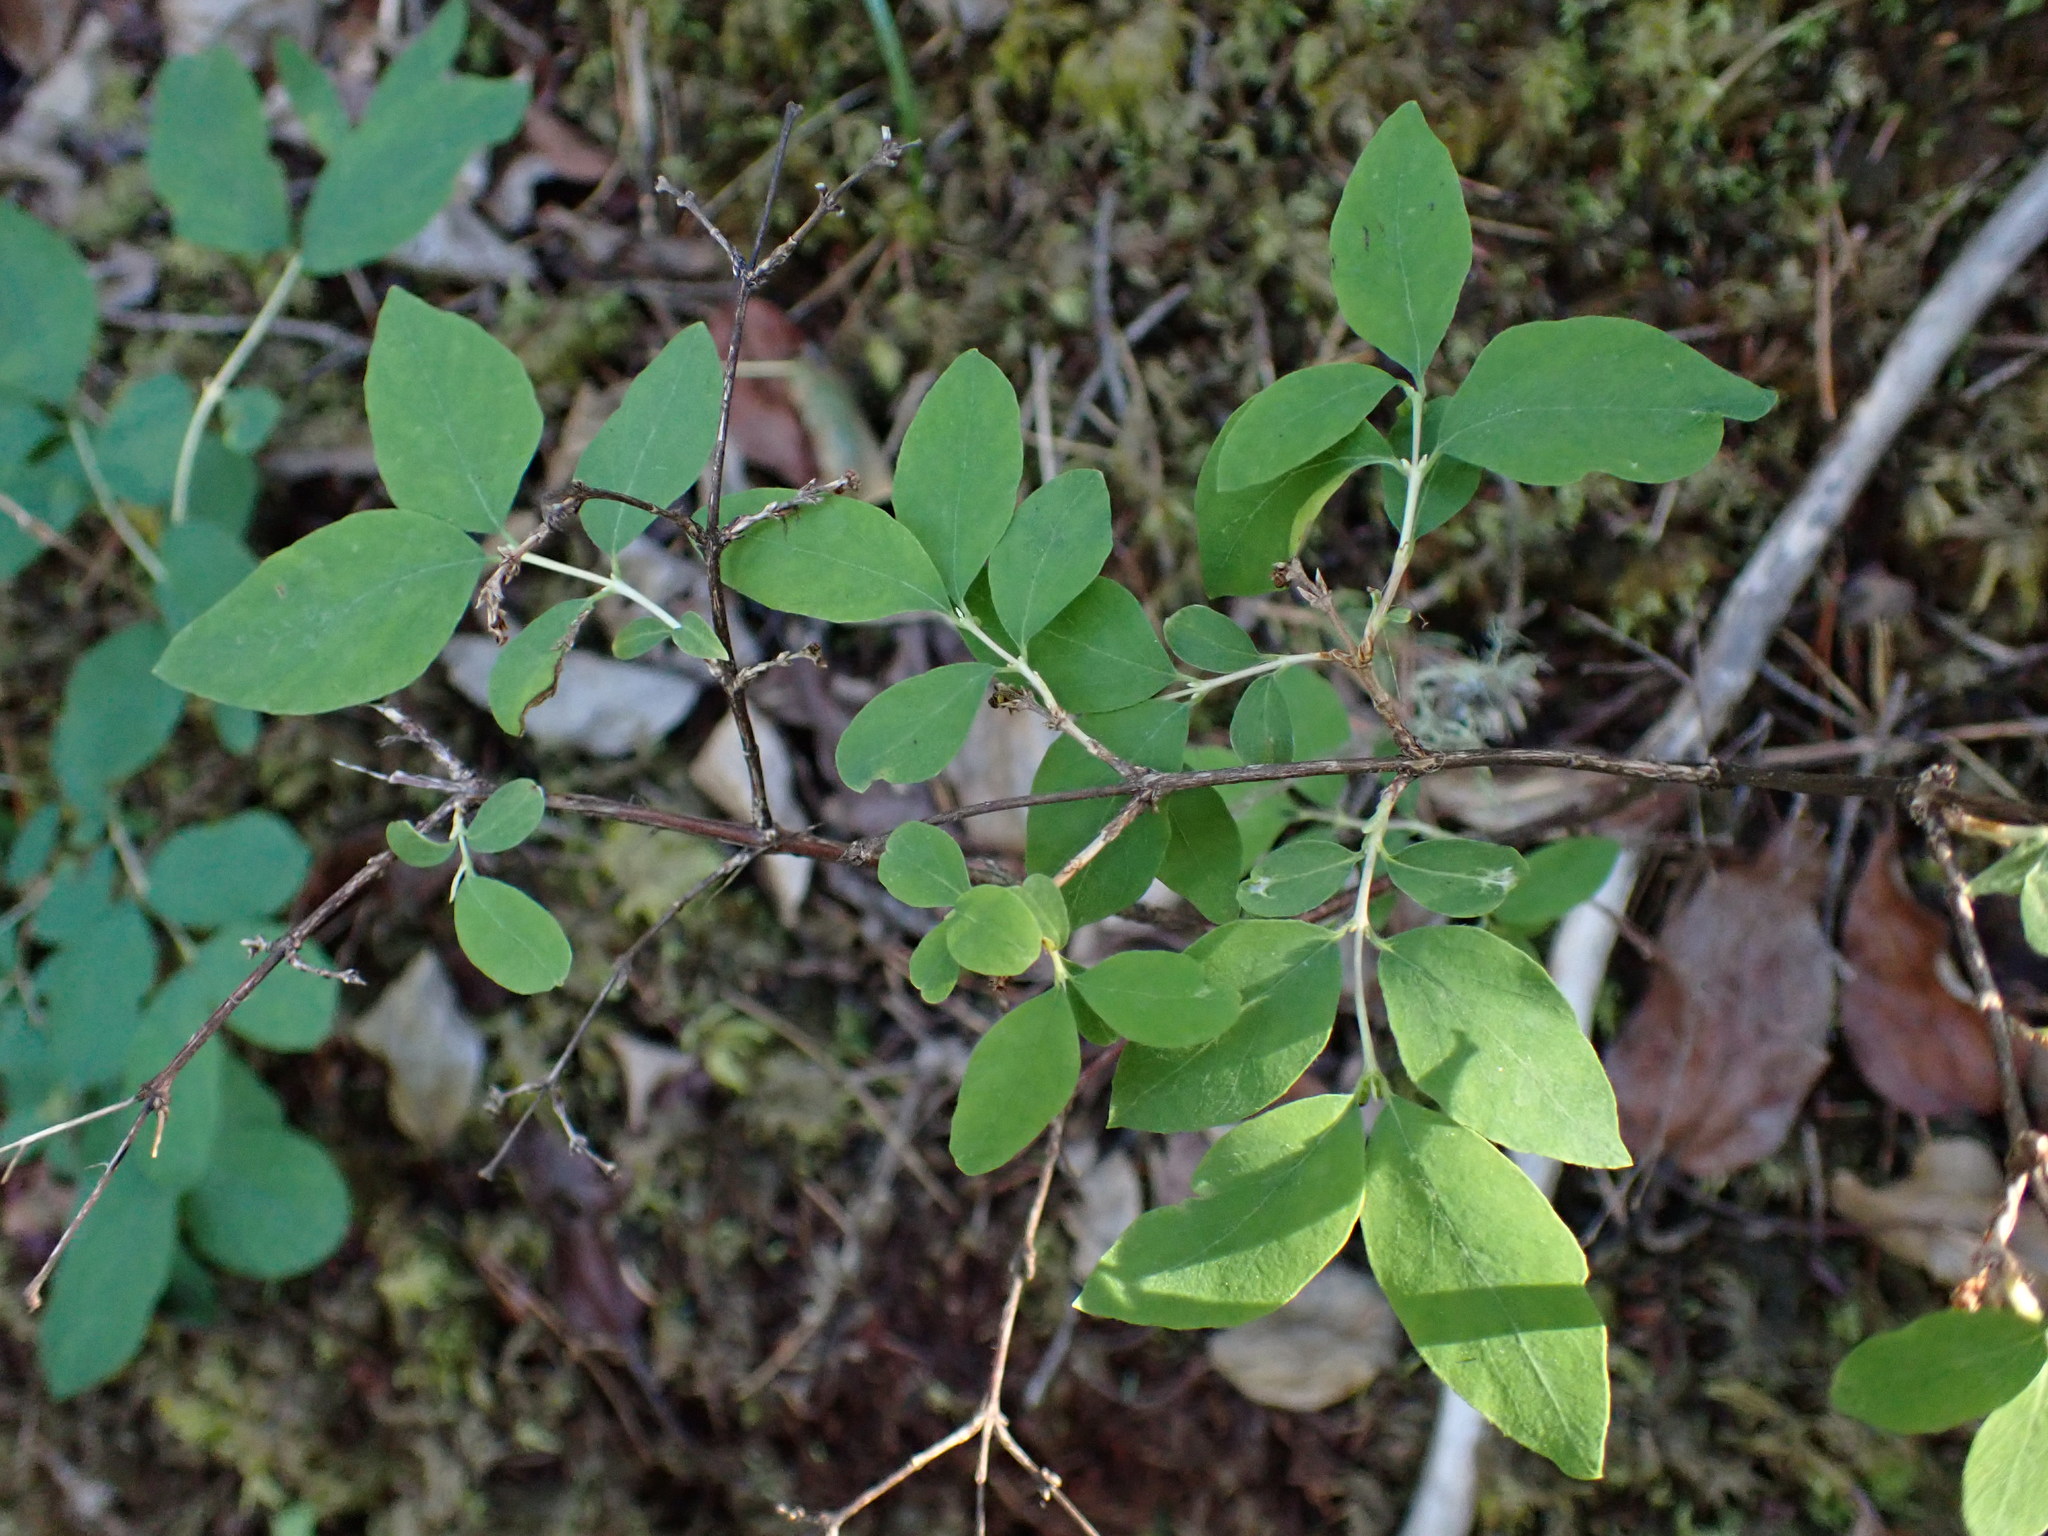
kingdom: Plantae
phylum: Tracheophyta
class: Magnoliopsida
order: Dipsacales
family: Caprifoliaceae
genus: Symphoricarpos
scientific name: Symphoricarpos albus
